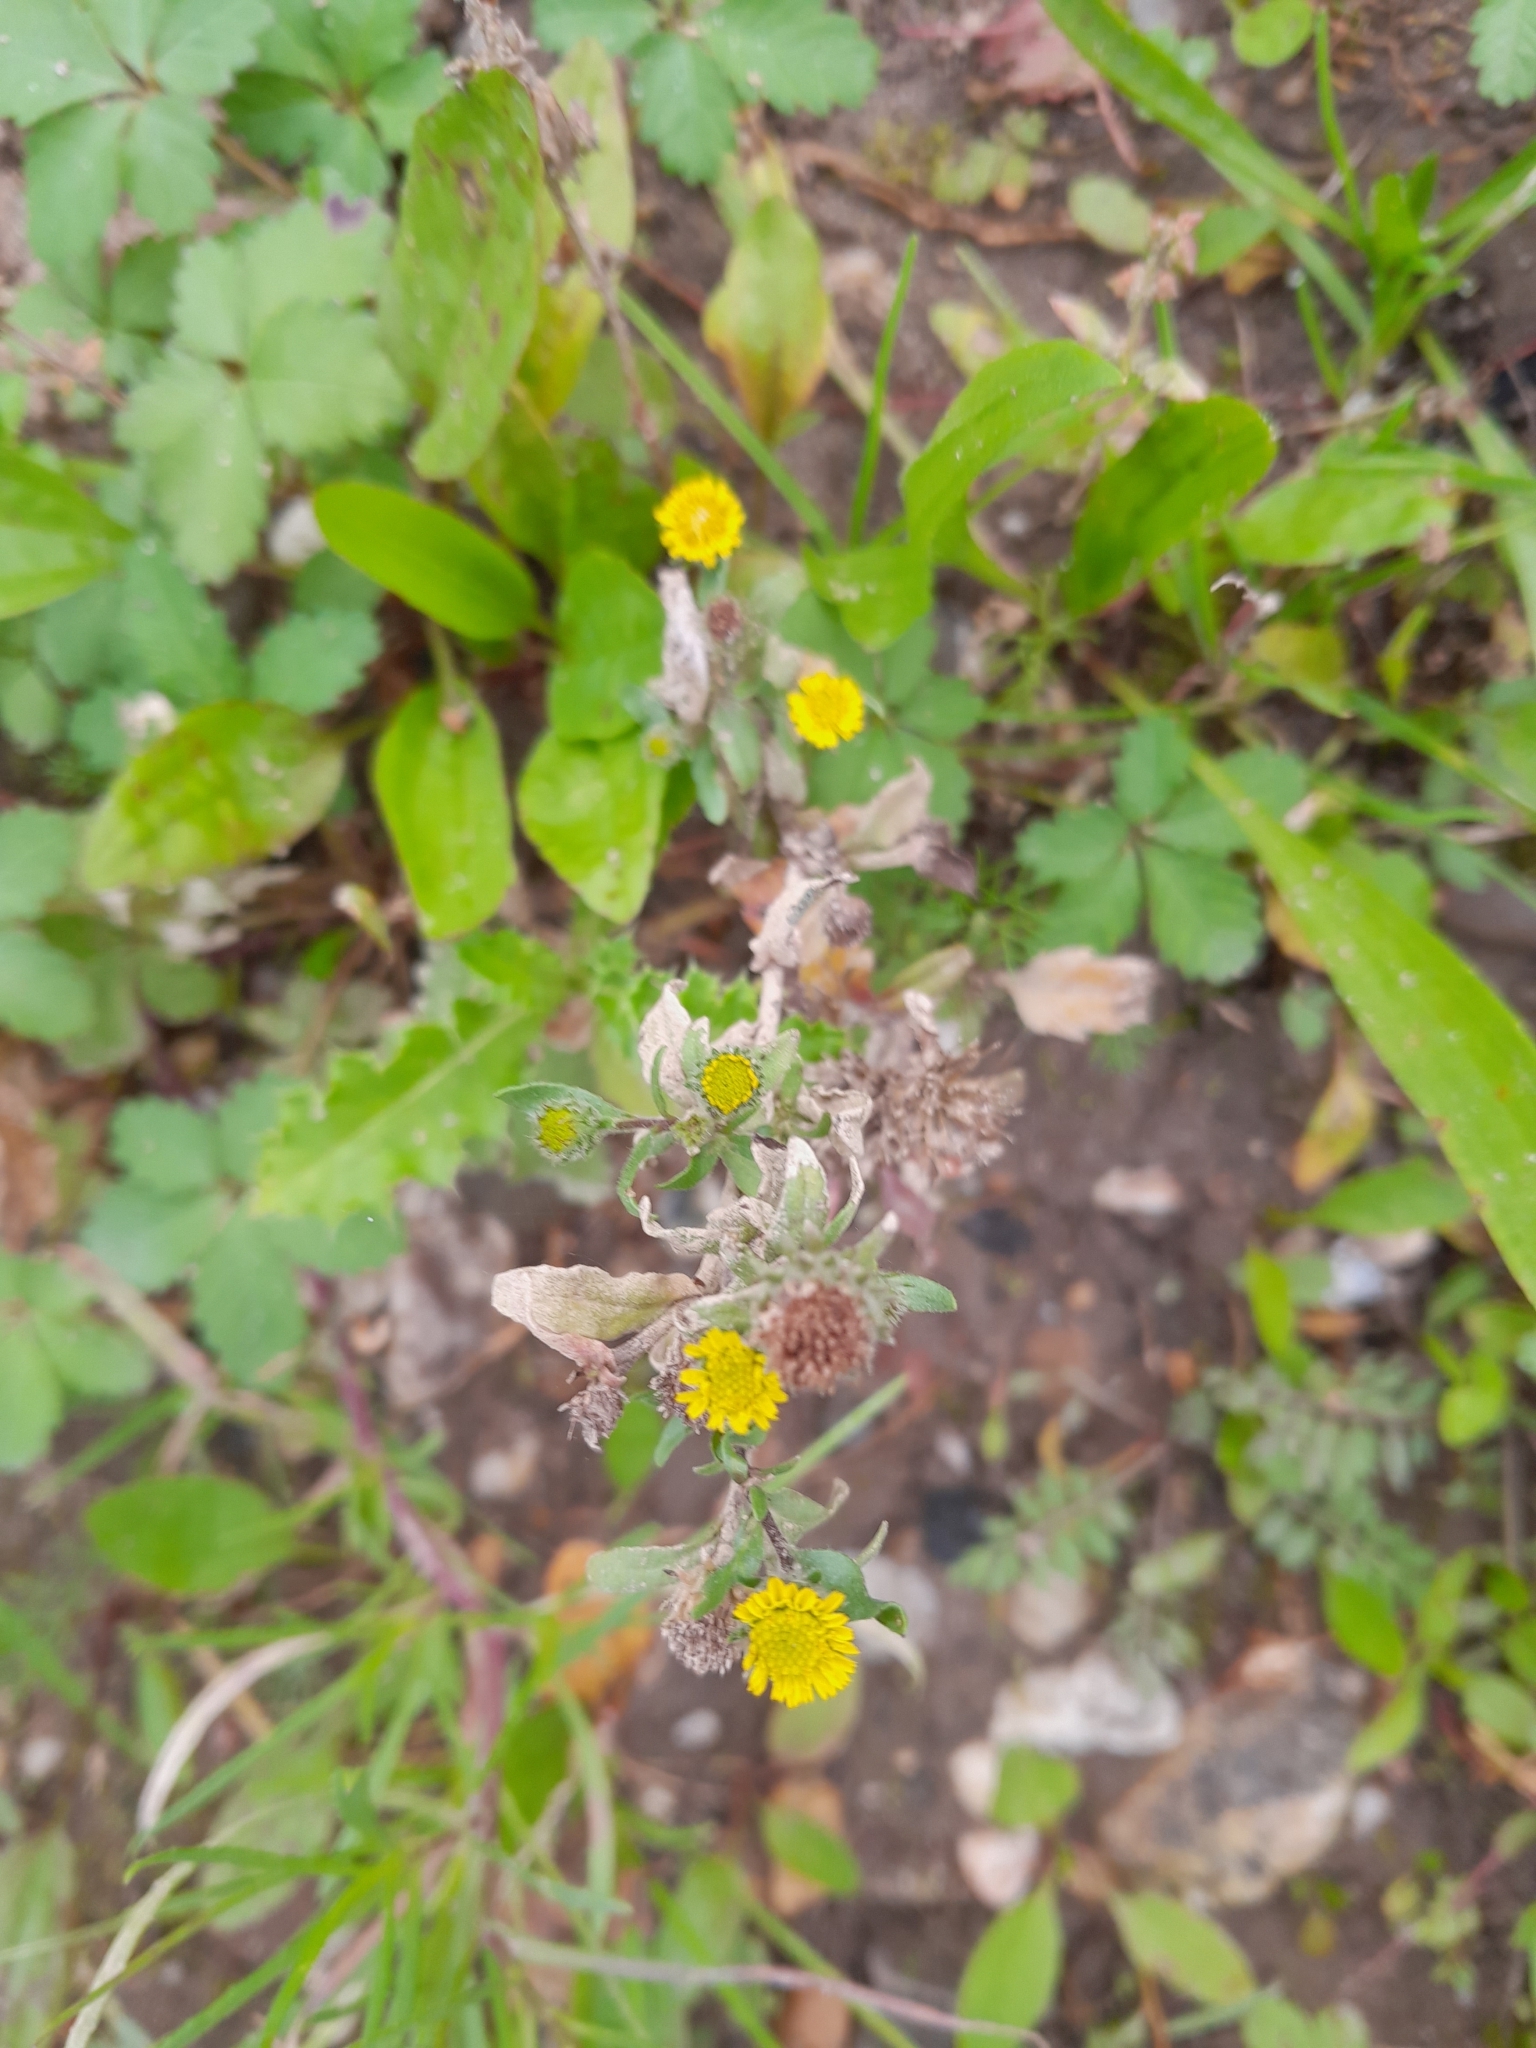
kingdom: Plantae
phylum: Tracheophyta
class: Magnoliopsida
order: Asterales
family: Asteraceae
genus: Pulicaria
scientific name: Pulicaria vulgaris
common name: Small fleabane
